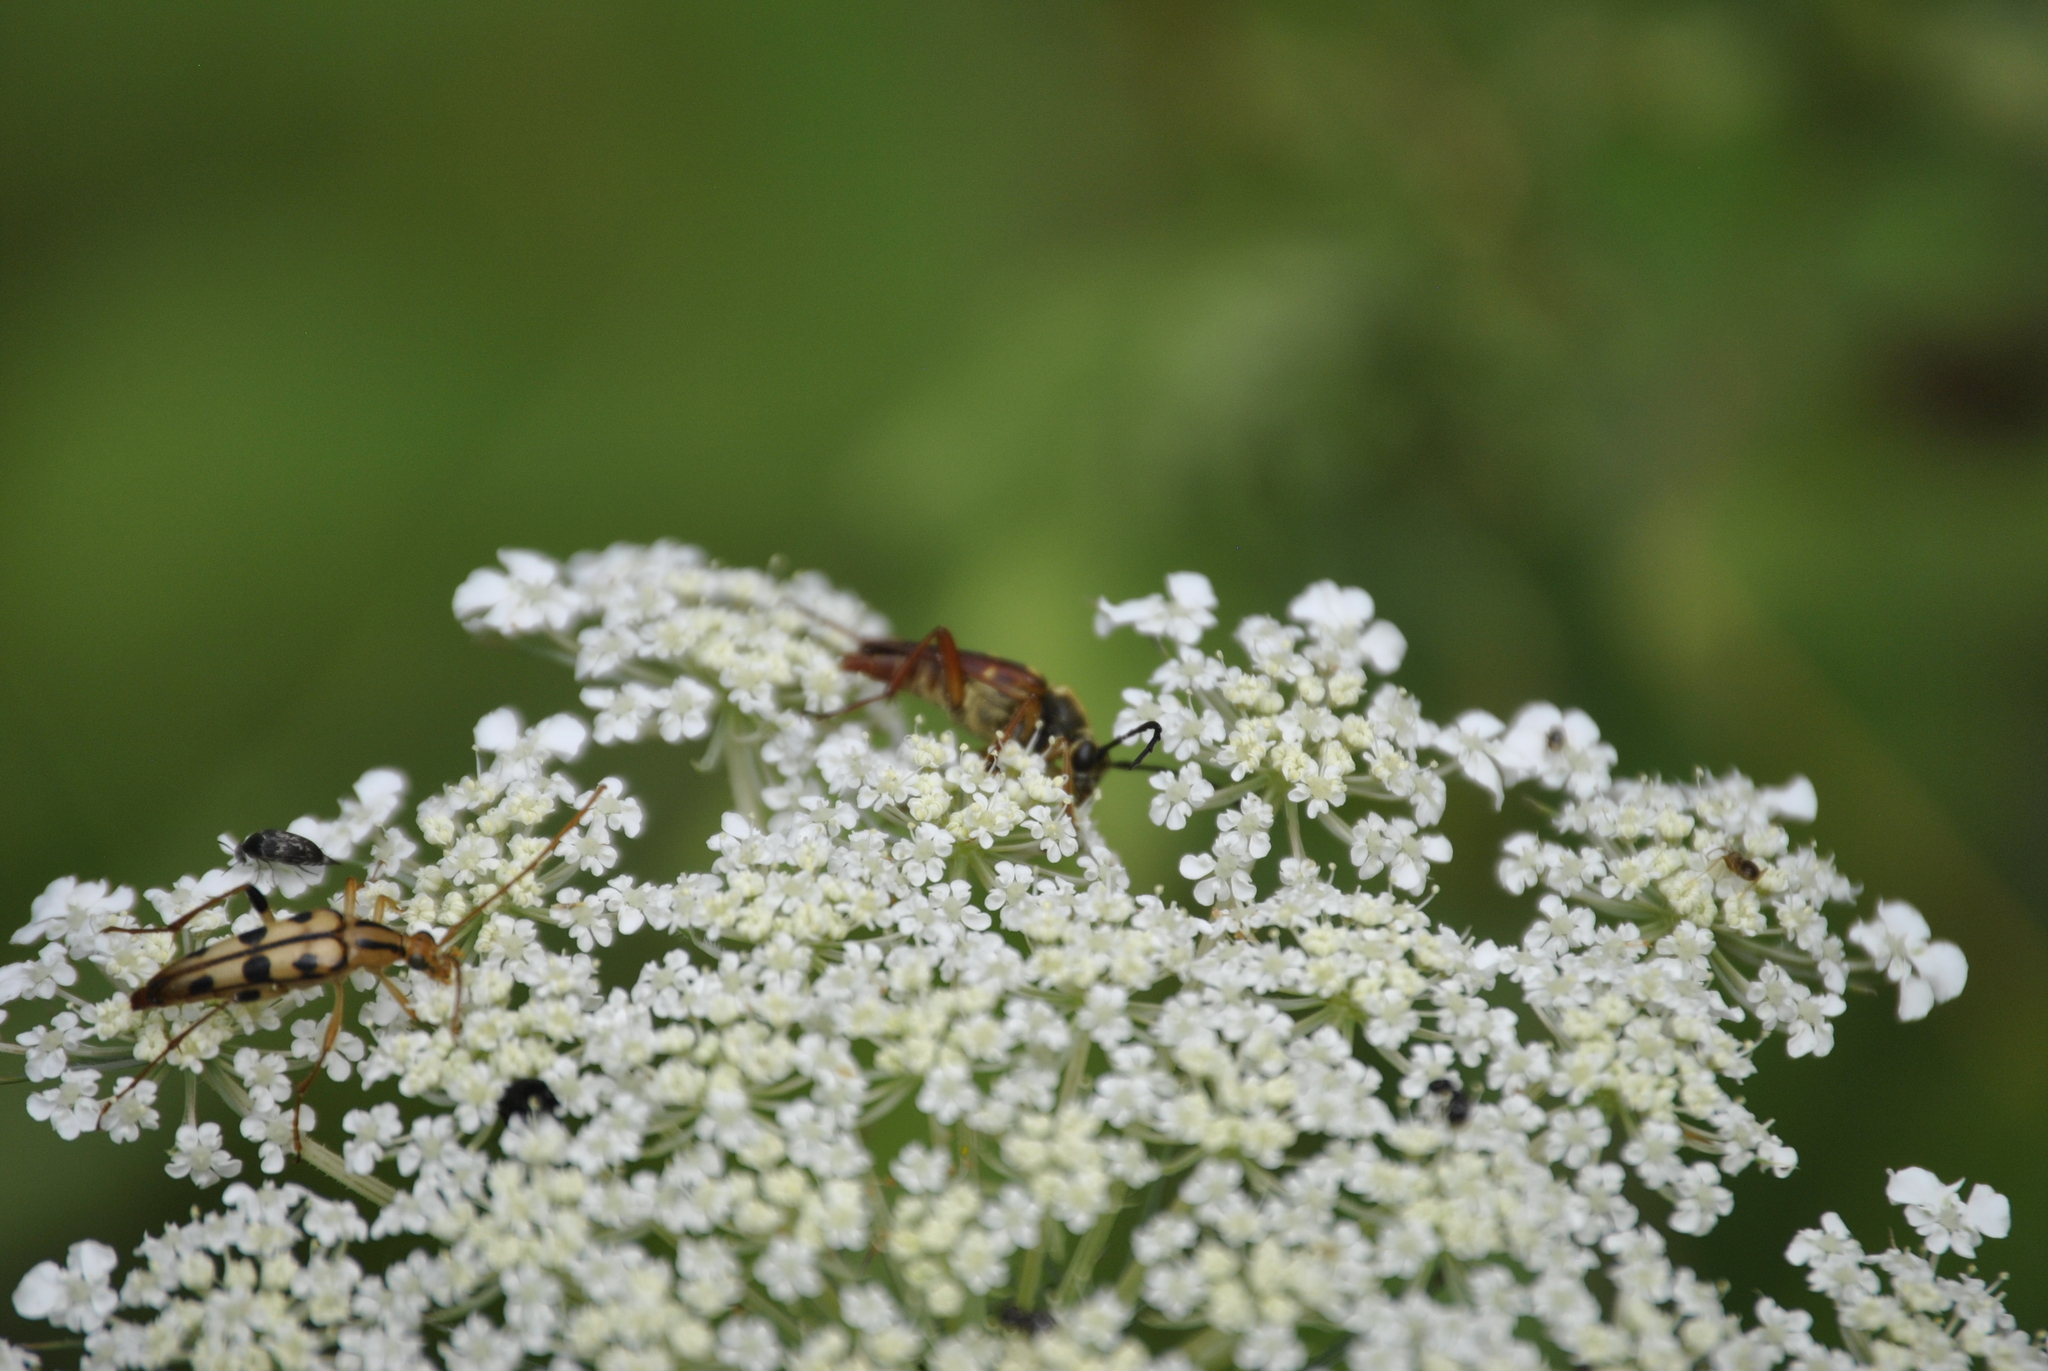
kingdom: Animalia
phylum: Arthropoda
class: Insecta
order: Coleoptera
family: Cerambycidae
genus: Typocerus
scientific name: Typocerus velutinus
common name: Banded longhorn beetle
